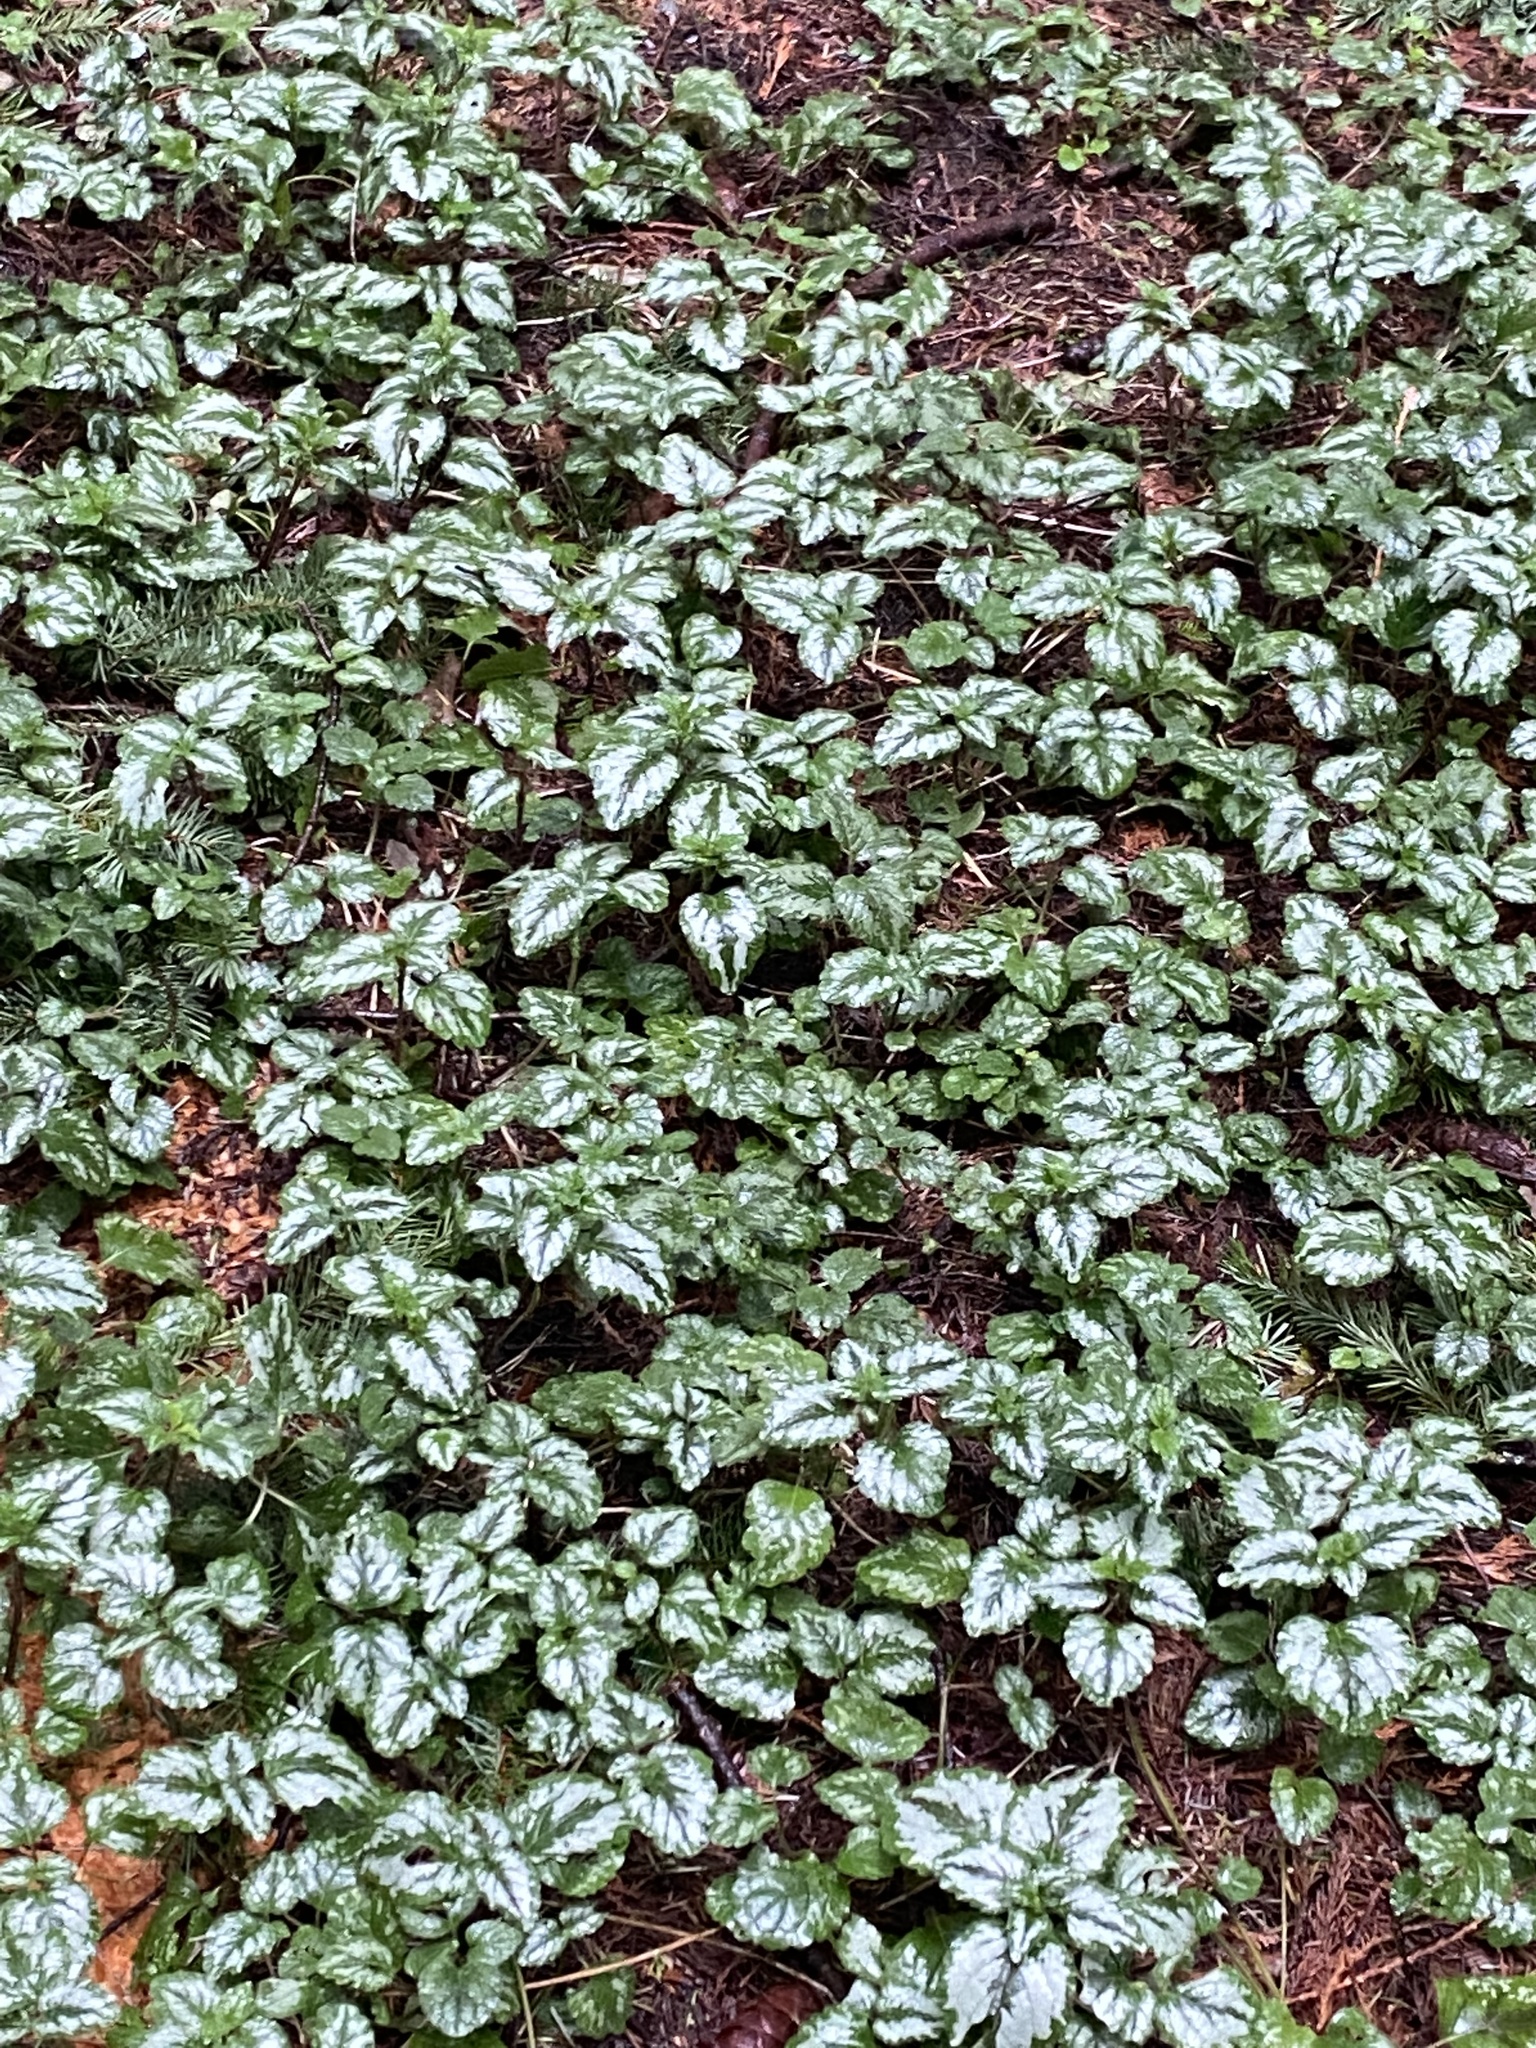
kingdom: Plantae
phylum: Tracheophyta
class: Magnoliopsida
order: Lamiales
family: Lamiaceae
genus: Lamium
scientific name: Lamium galeobdolon
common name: Yellow archangel
